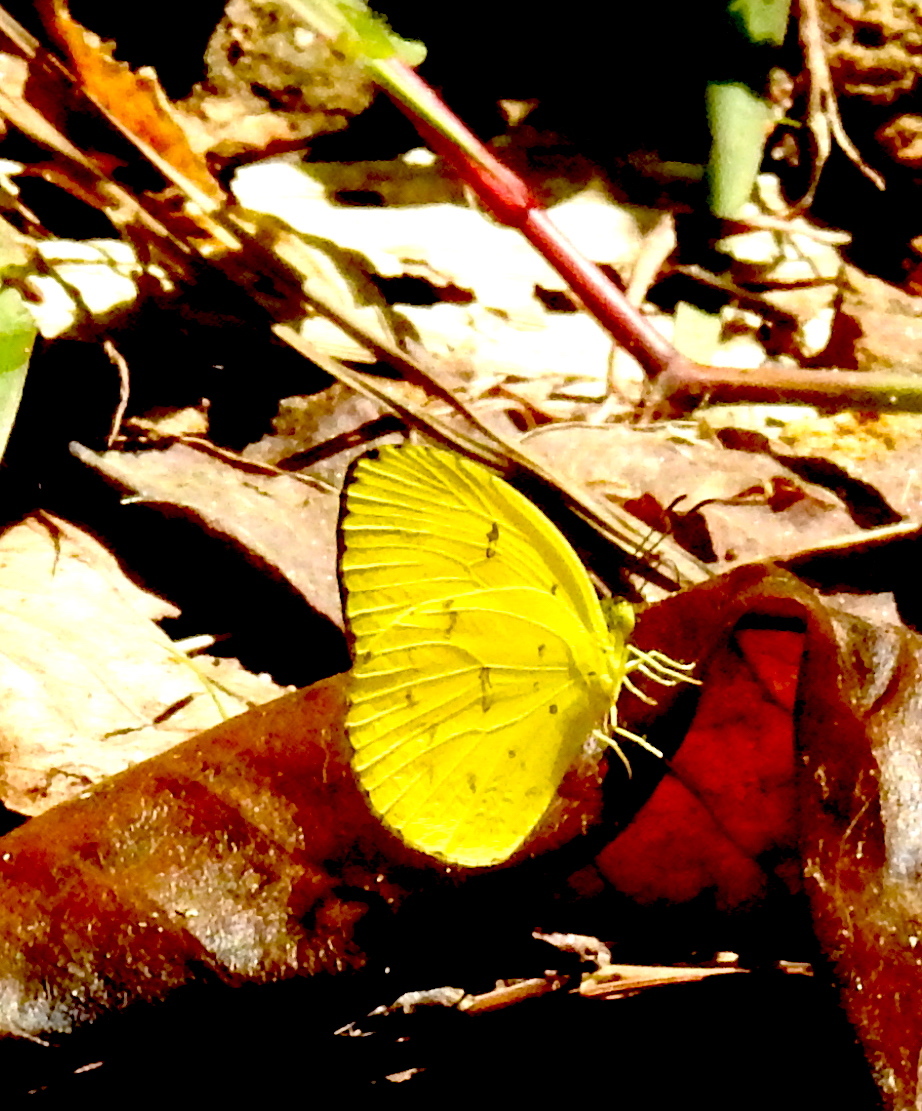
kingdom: Animalia
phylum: Arthropoda
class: Insecta
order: Lepidoptera
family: Pieridae
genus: Eurema
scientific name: Eurema andersoni
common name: One-spot yellow grass
